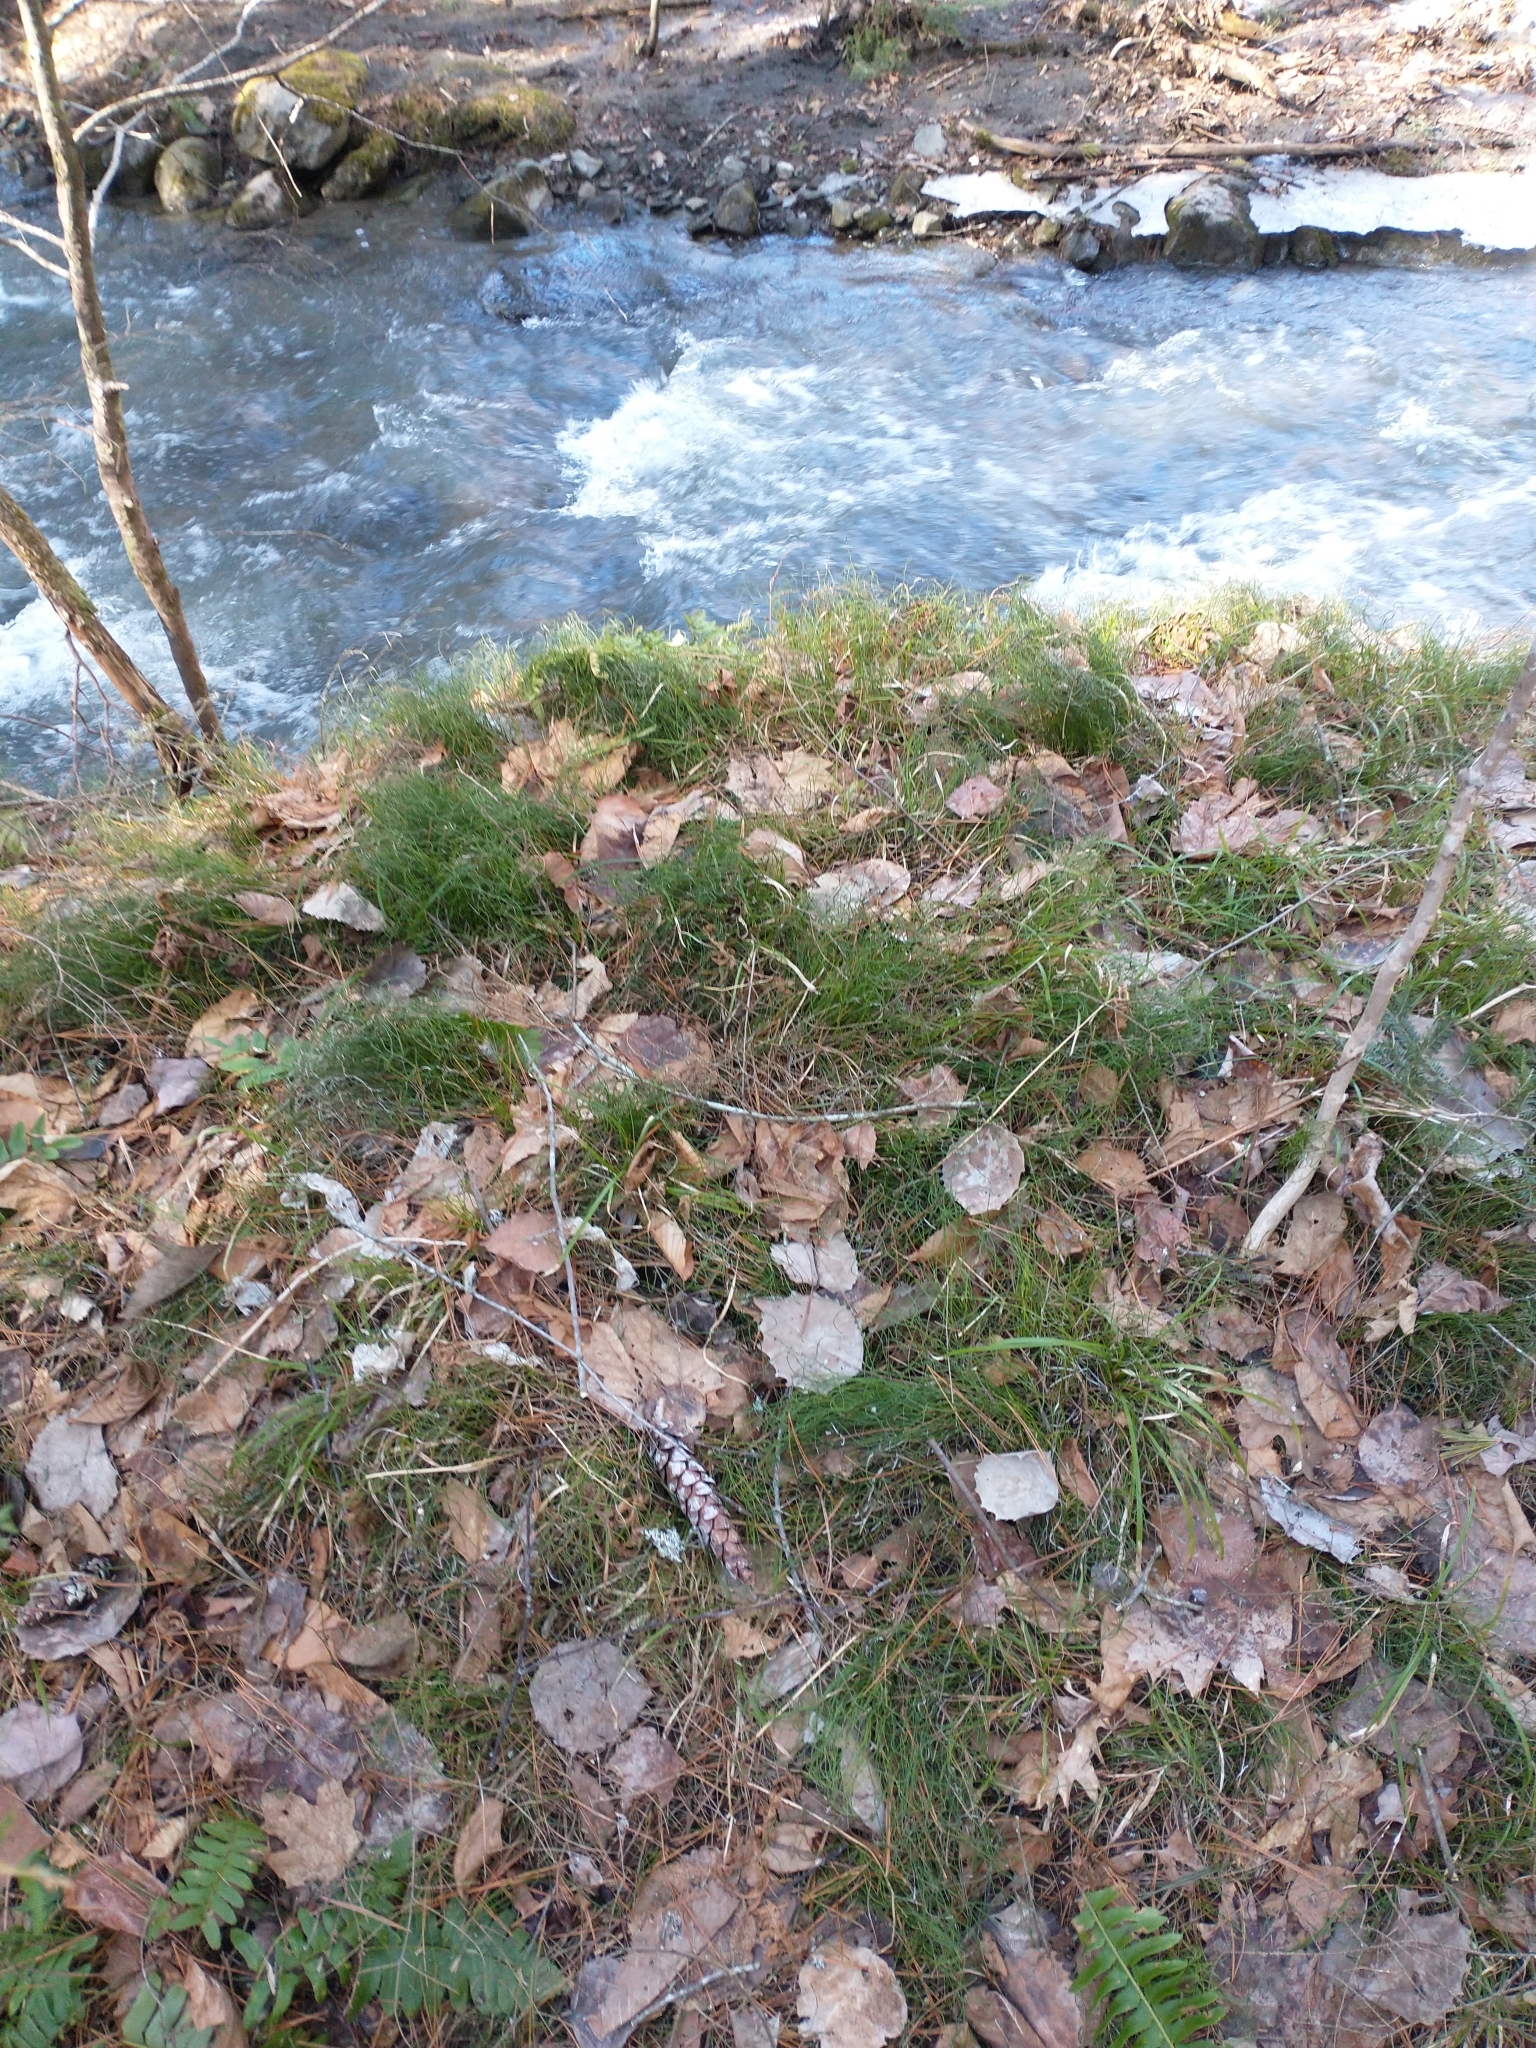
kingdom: Plantae
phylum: Tracheophyta
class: Polypodiopsida
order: Equisetales
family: Equisetaceae
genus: Equisetum
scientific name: Equisetum scirpoides
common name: Delicate horsetail
